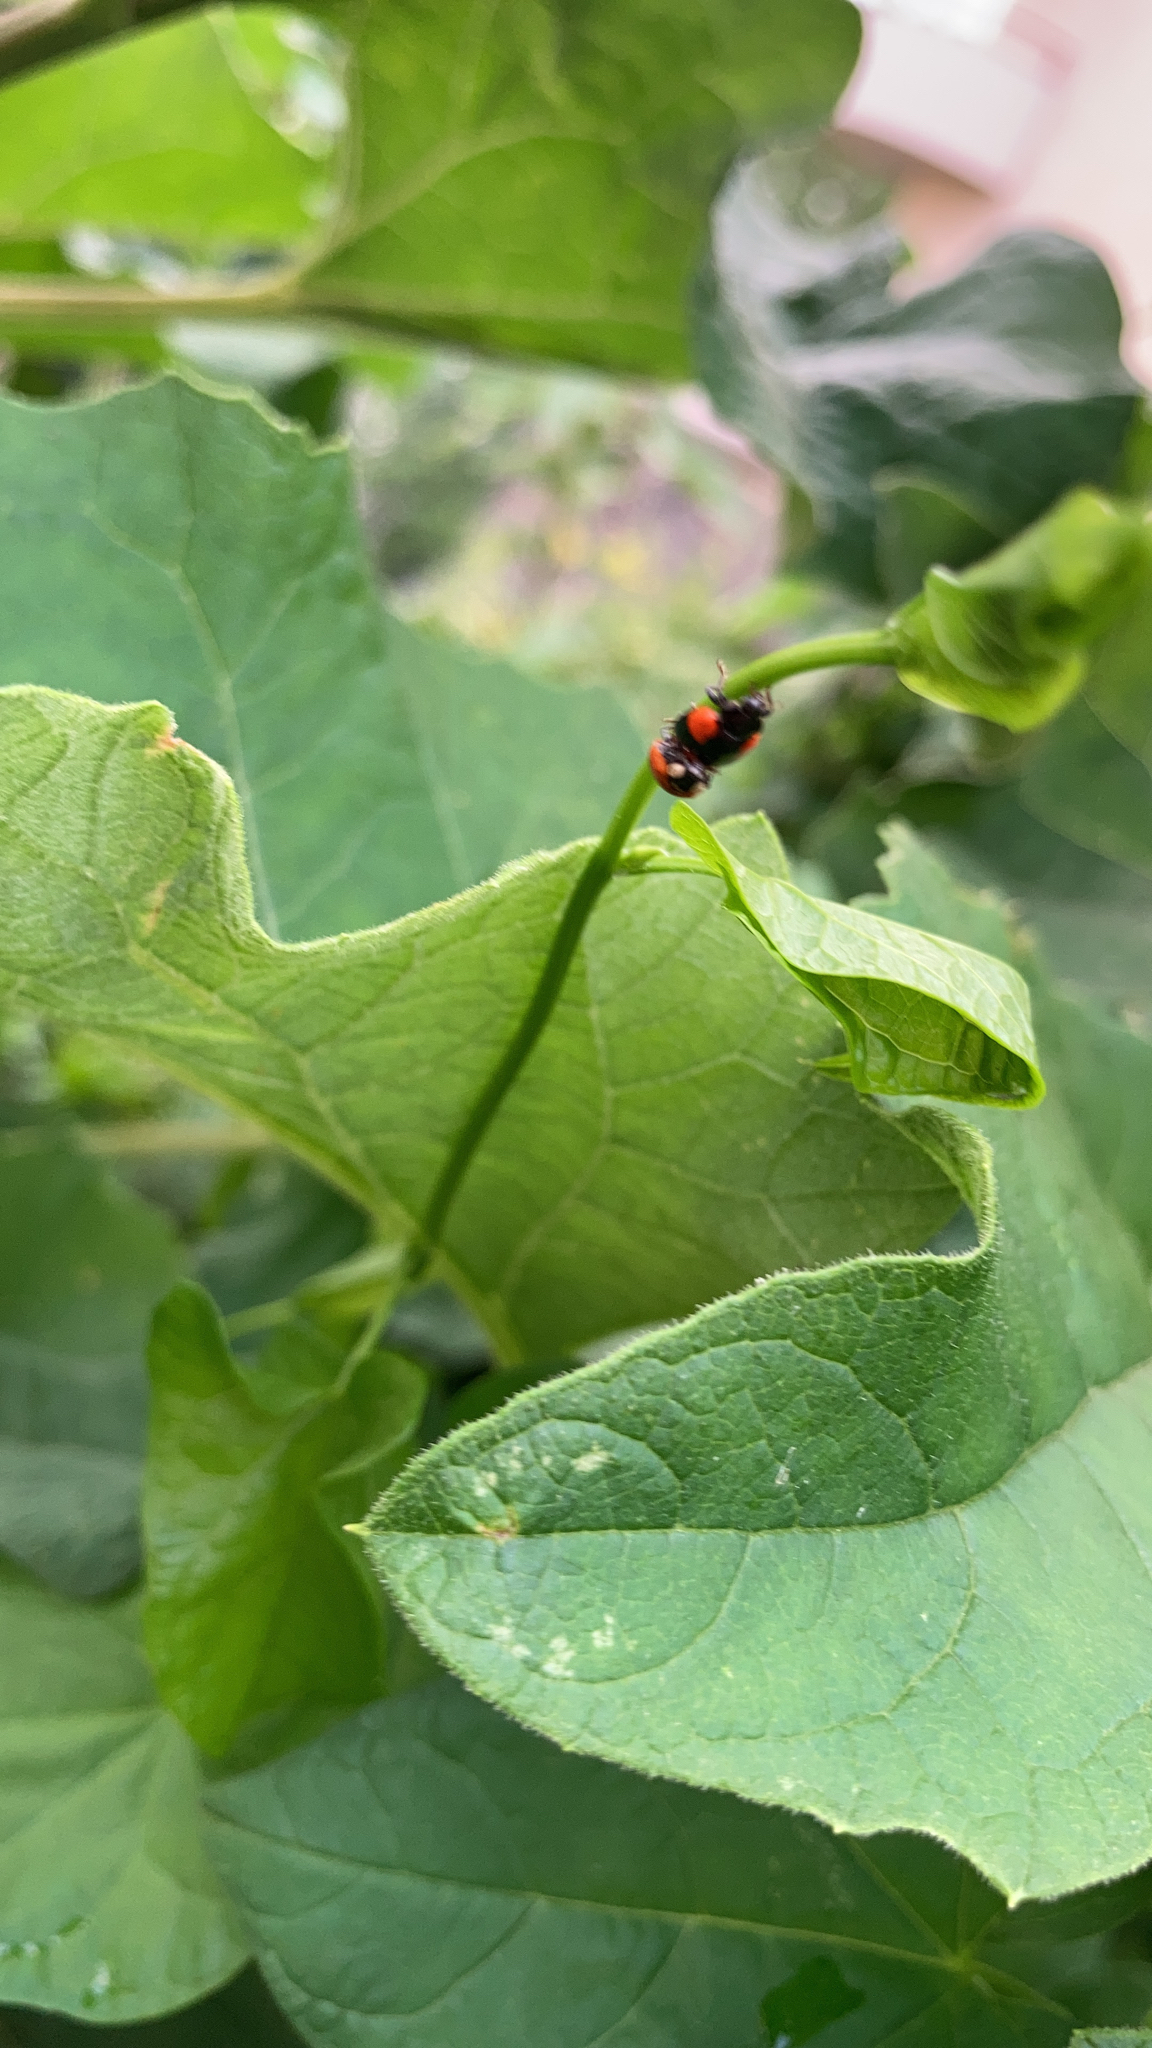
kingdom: Animalia
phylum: Arthropoda
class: Insecta
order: Coleoptera
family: Coccinellidae
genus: Adalia
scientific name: Adalia bipunctata
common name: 2-spot ladybird
